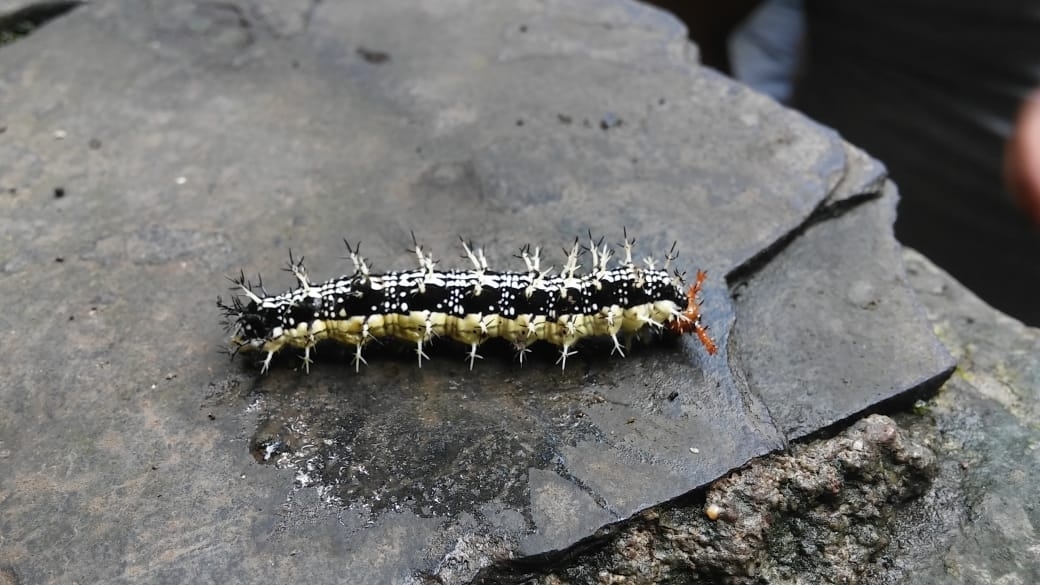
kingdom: Animalia
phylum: Arthropoda
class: Insecta
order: Lepidoptera
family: Nymphalidae
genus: Smyrna
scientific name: Smyrna blomfildia
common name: Blomfild's beauty
